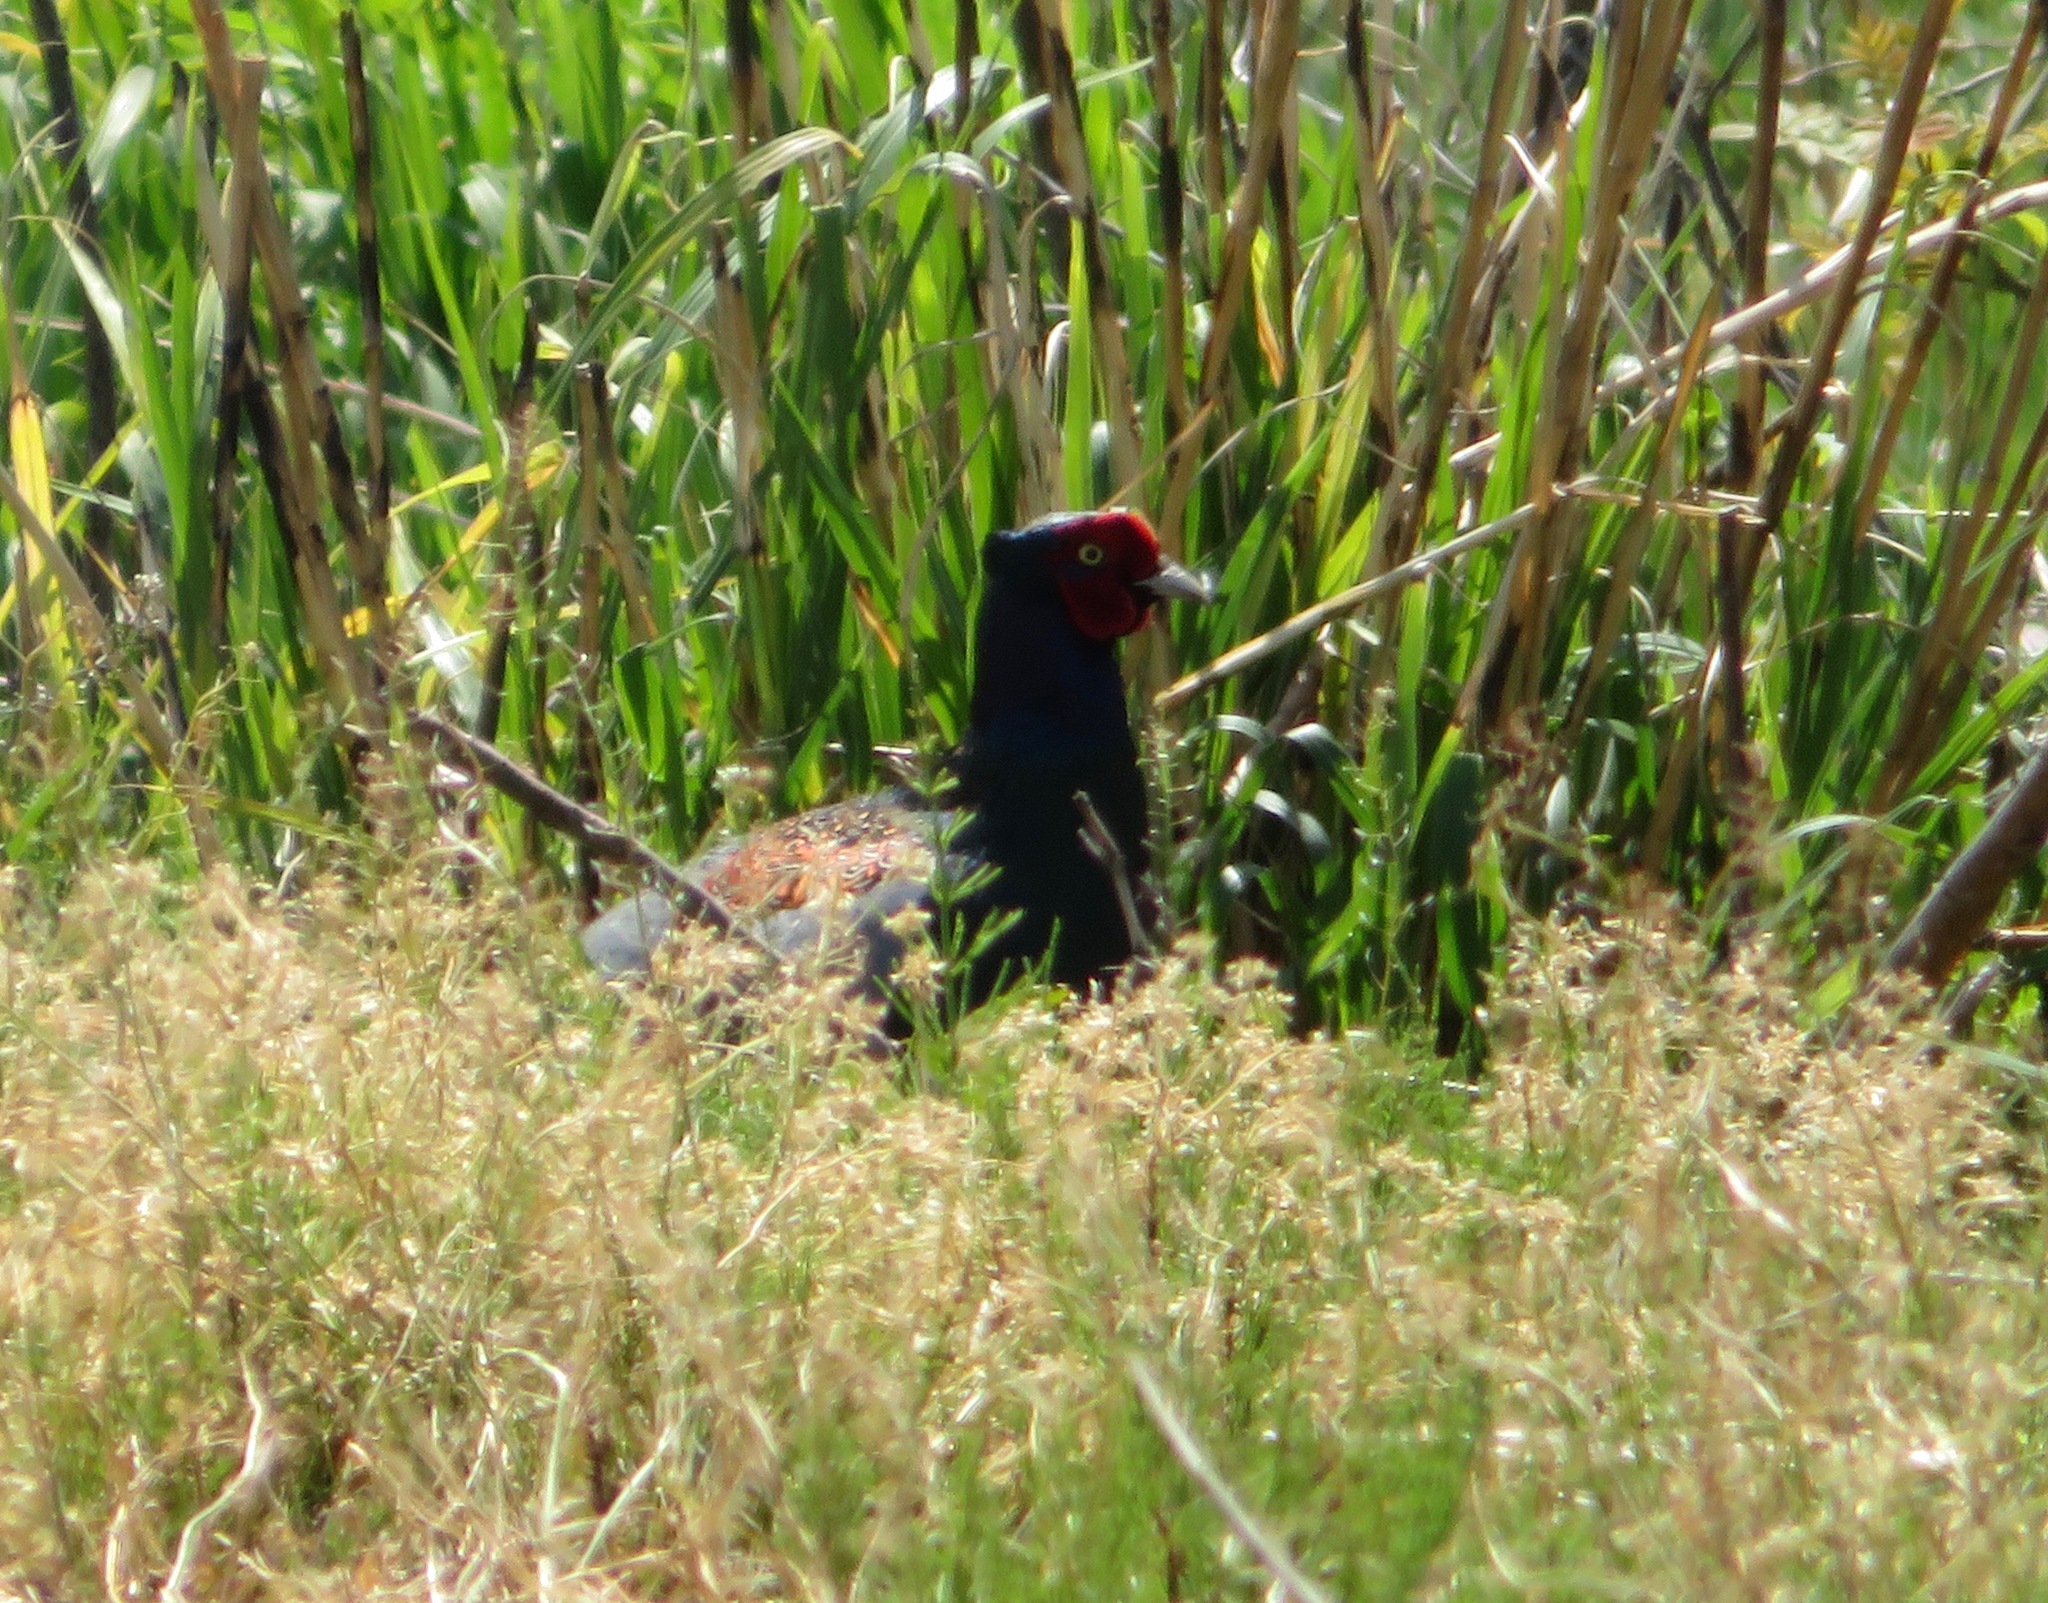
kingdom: Animalia
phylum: Chordata
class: Aves
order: Galliformes
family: Phasianidae
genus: Phasianus
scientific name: Phasianus versicolor
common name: Green pheasant
